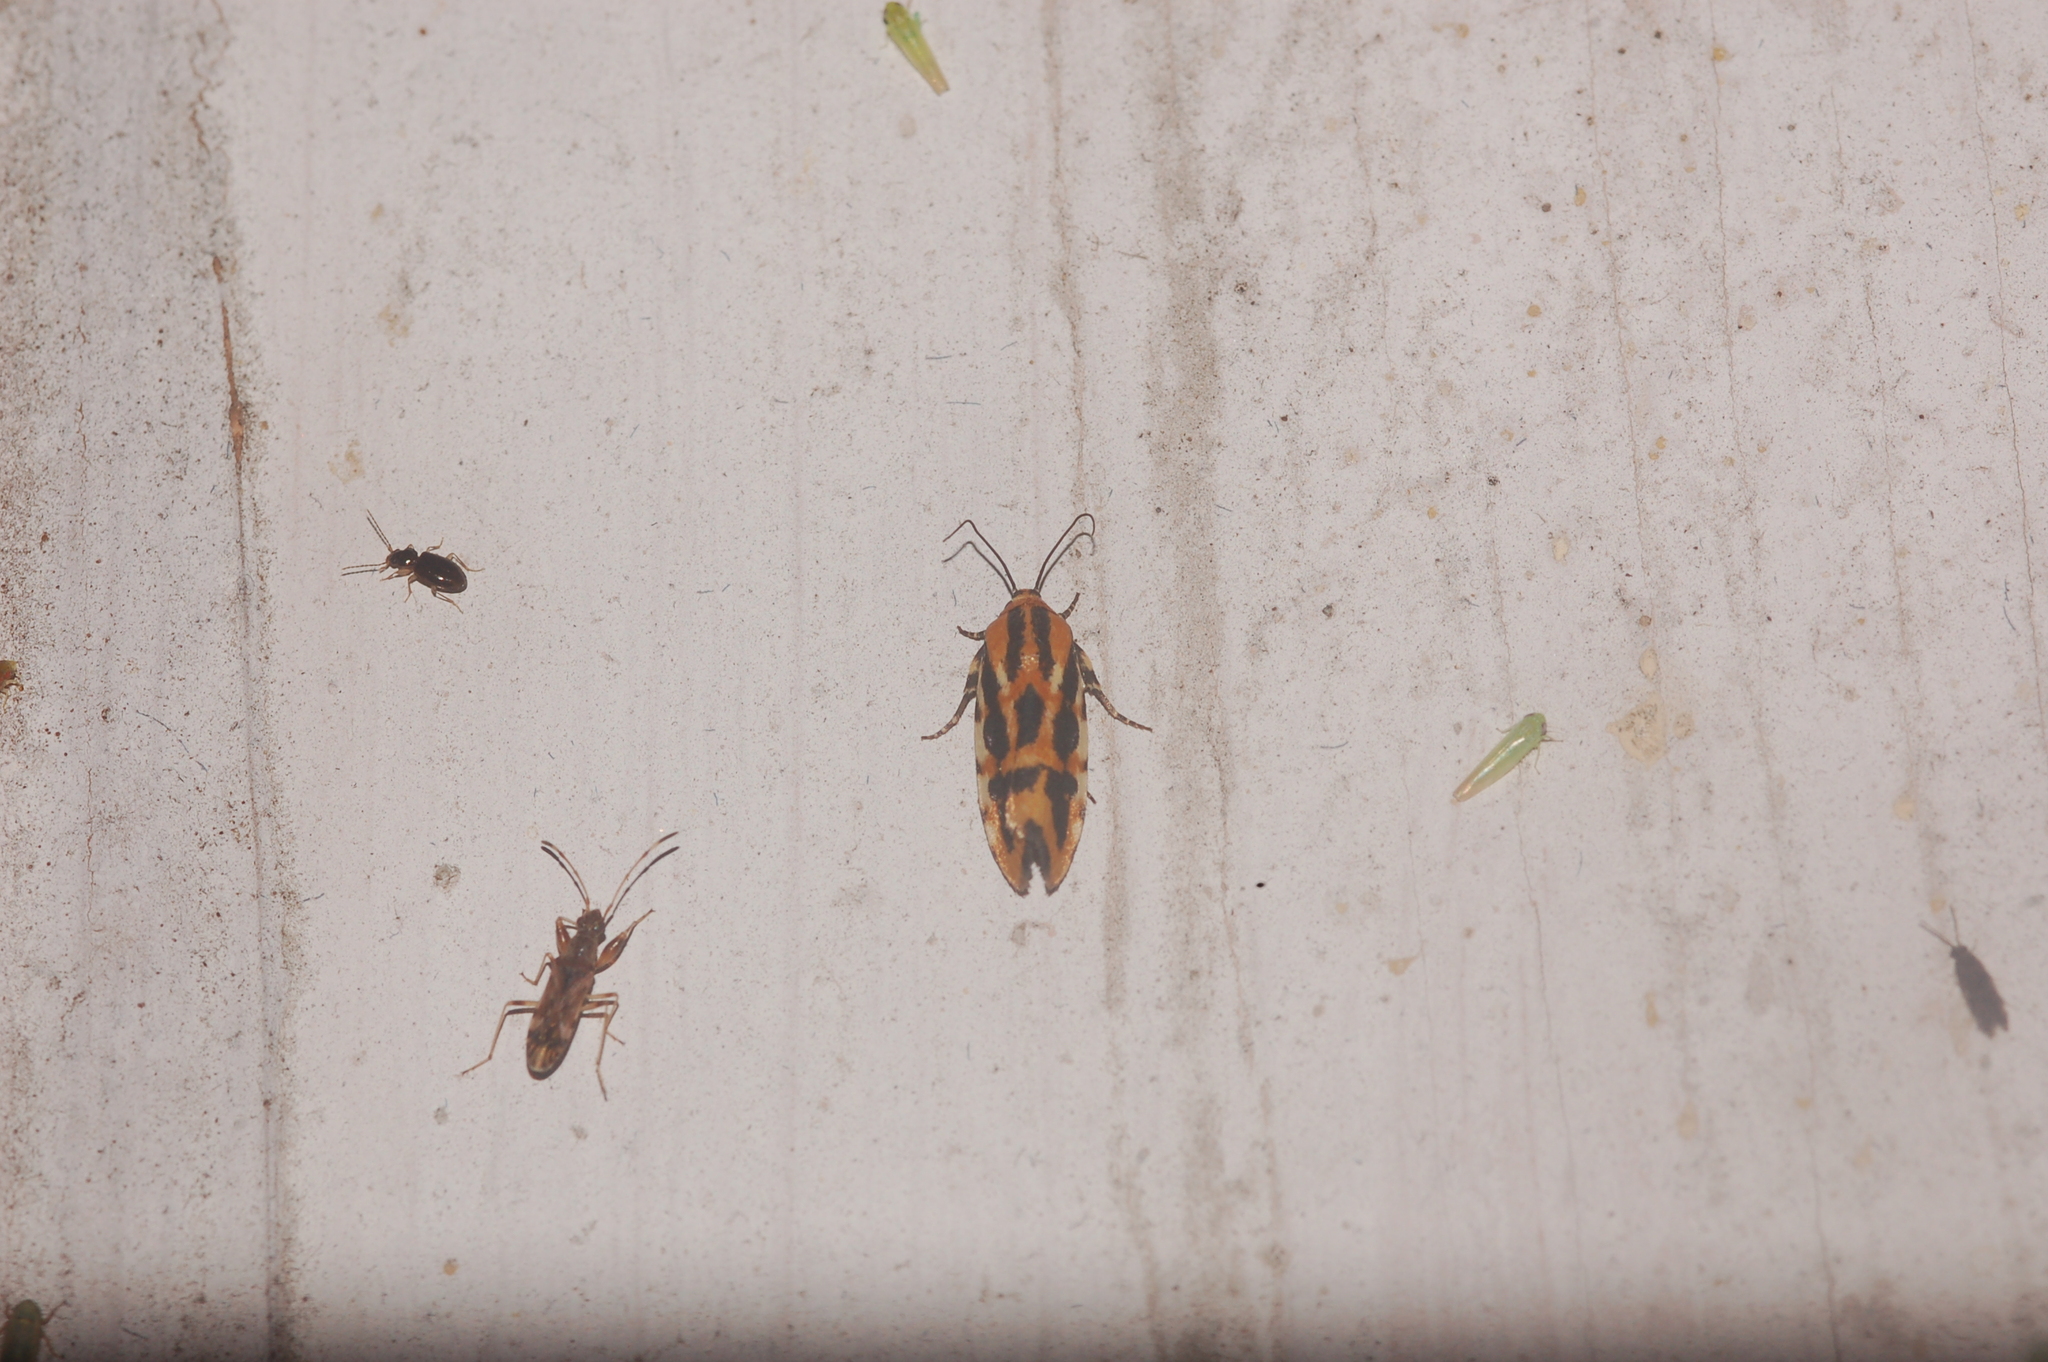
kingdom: Animalia
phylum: Arthropoda
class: Insecta
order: Lepidoptera
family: Noctuidae
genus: Acontia
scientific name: Acontia leo
